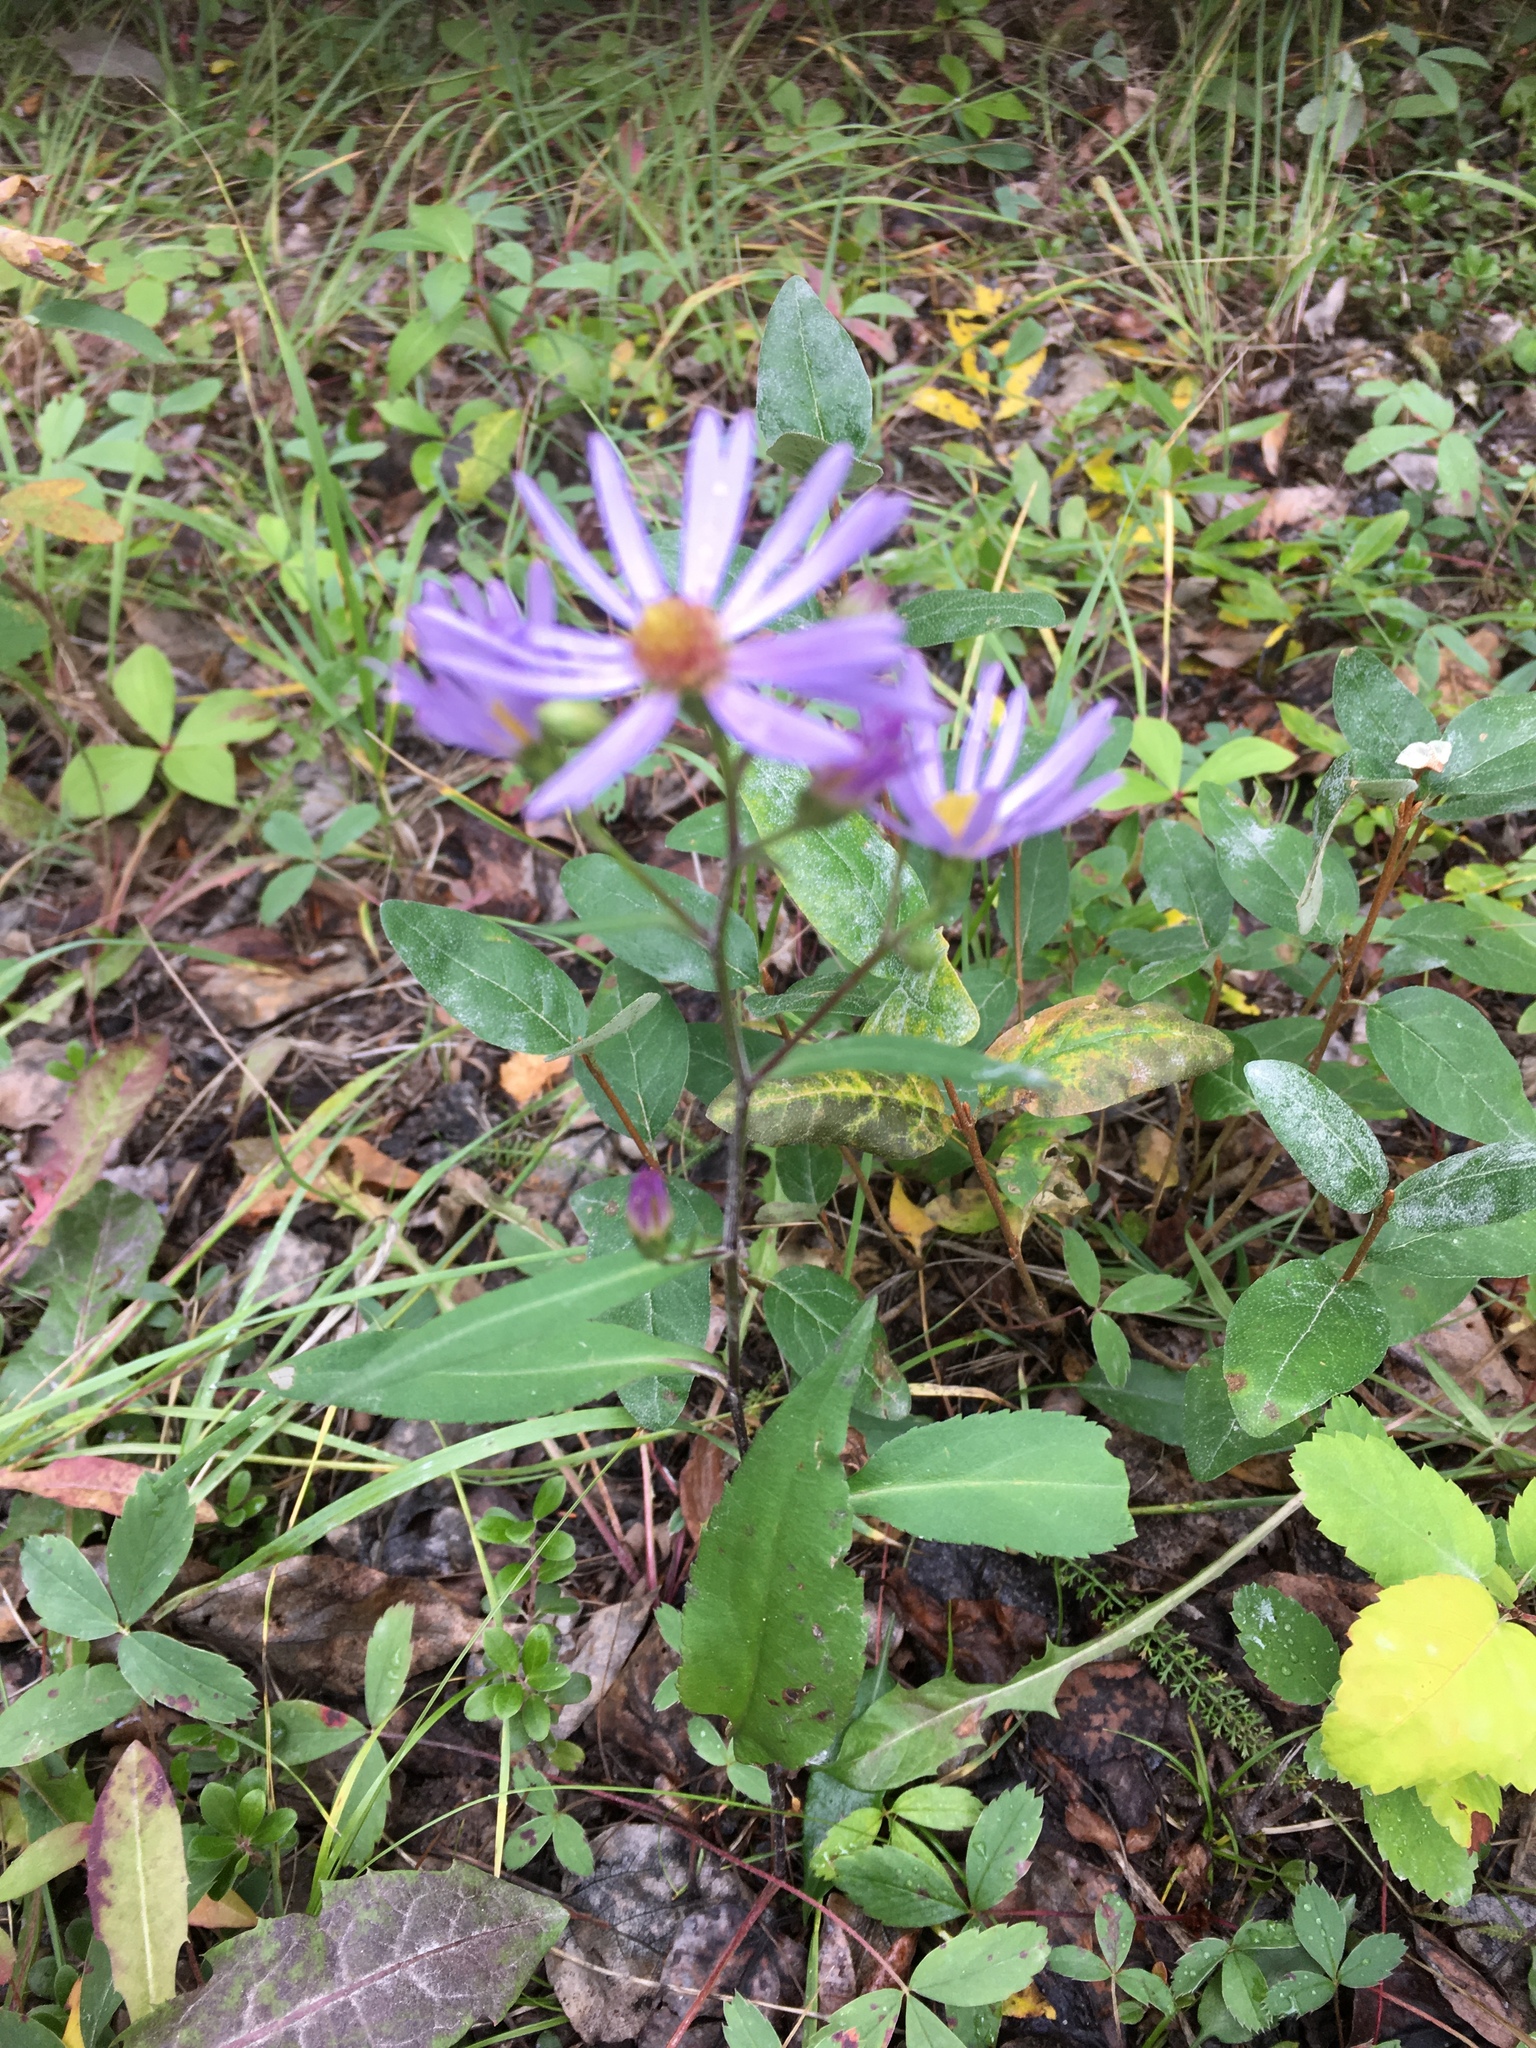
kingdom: Plantae
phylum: Tracheophyta
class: Magnoliopsida
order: Asterales
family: Asteraceae
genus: Symphyotrichum
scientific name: Symphyotrichum ciliolatum
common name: Fringed blue aster
